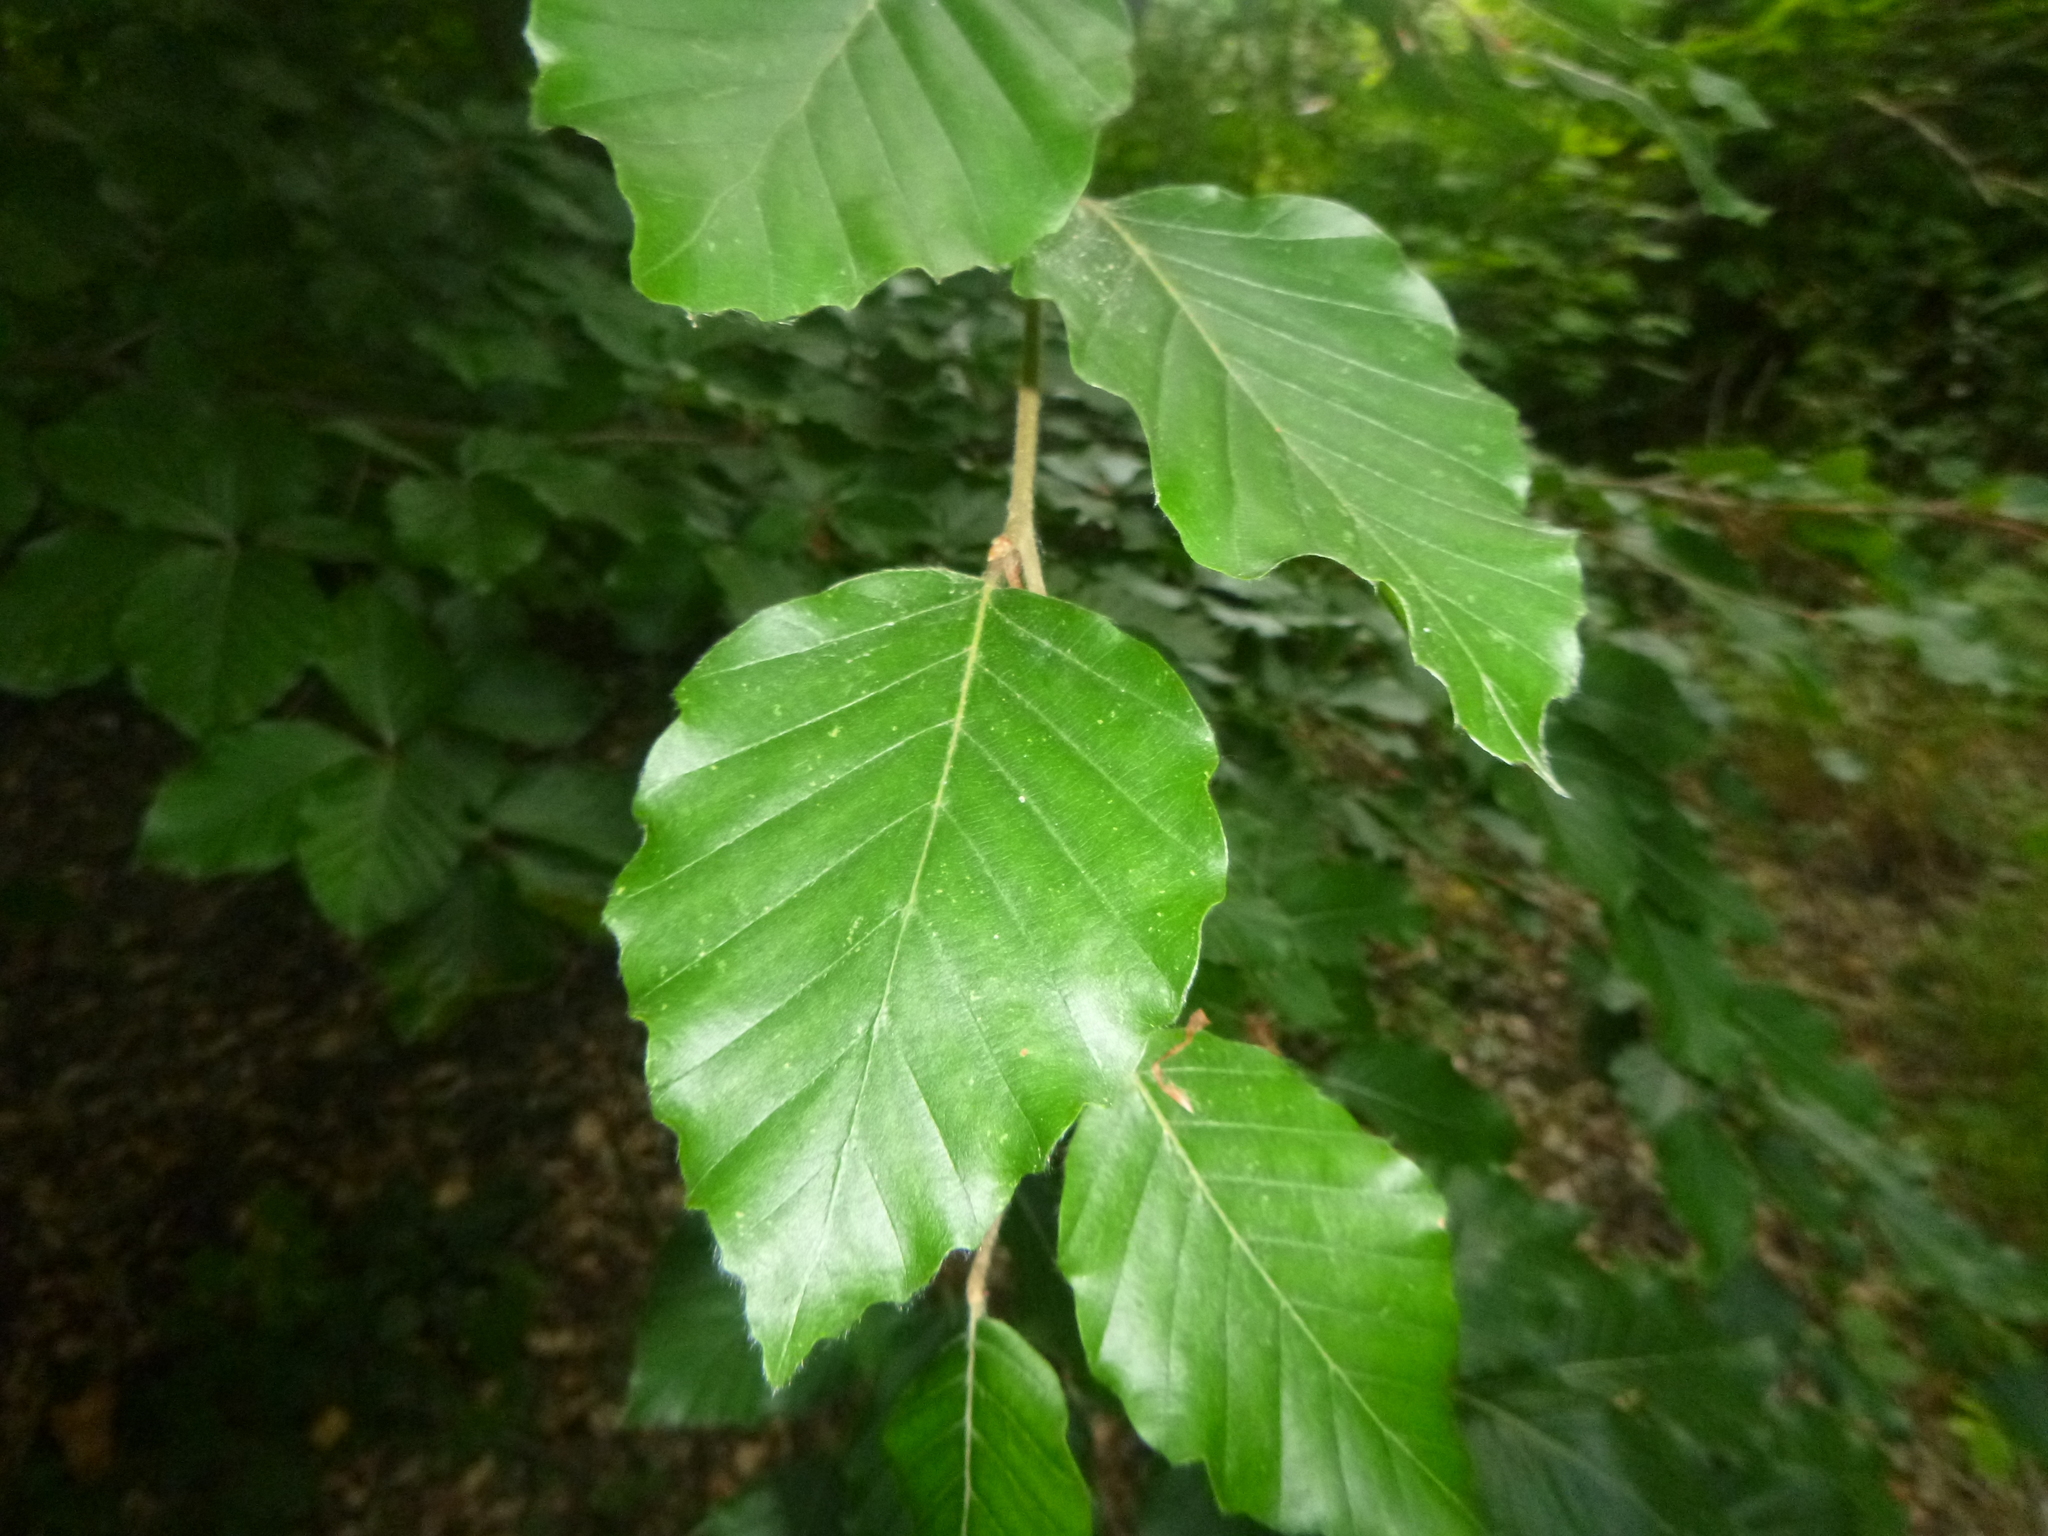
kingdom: Plantae
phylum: Tracheophyta
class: Magnoliopsida
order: Fagales
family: Fagaceae
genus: Fagus
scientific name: Fagus sylvatica
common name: Beech
